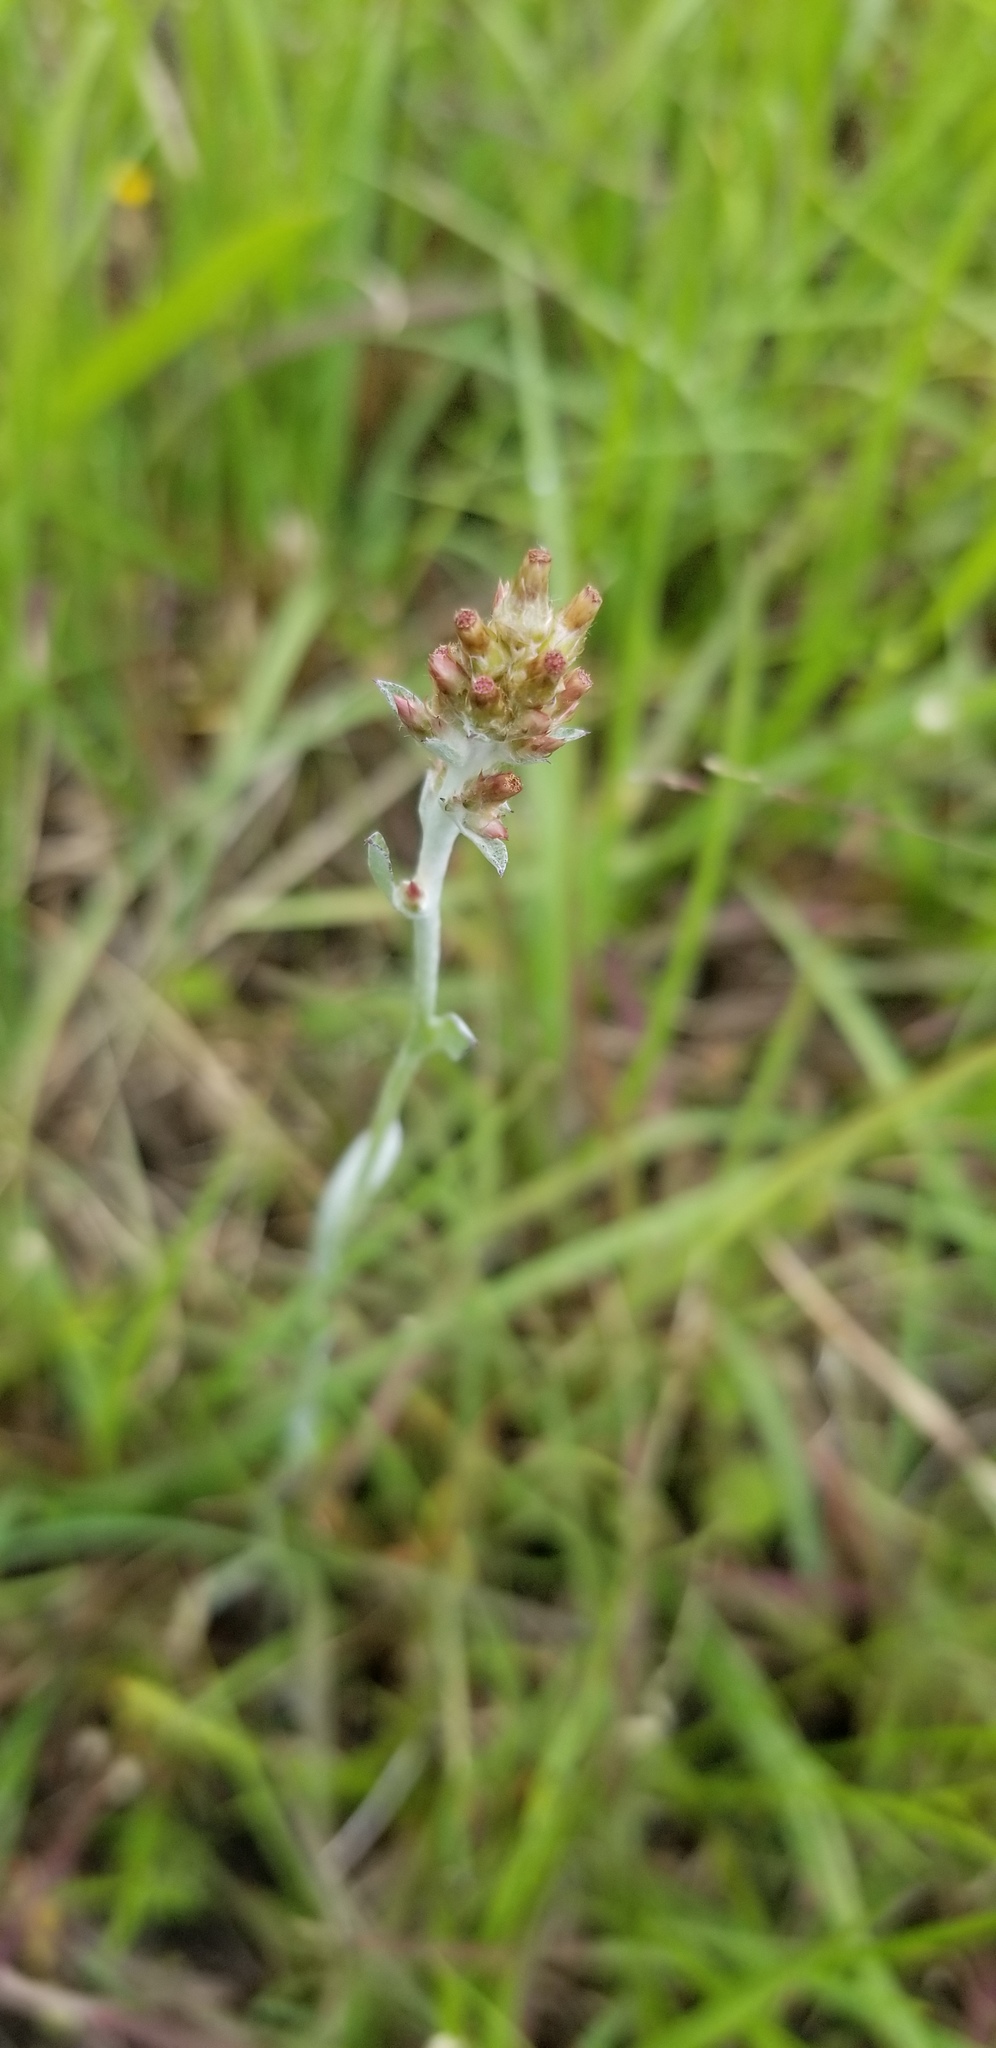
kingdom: Plantae
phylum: Tracheophyta
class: Magnoliopsida
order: Asterales
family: Asteraceae
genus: Gamochaeta
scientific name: Gamochaeta purpurea
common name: Purple cudweed
